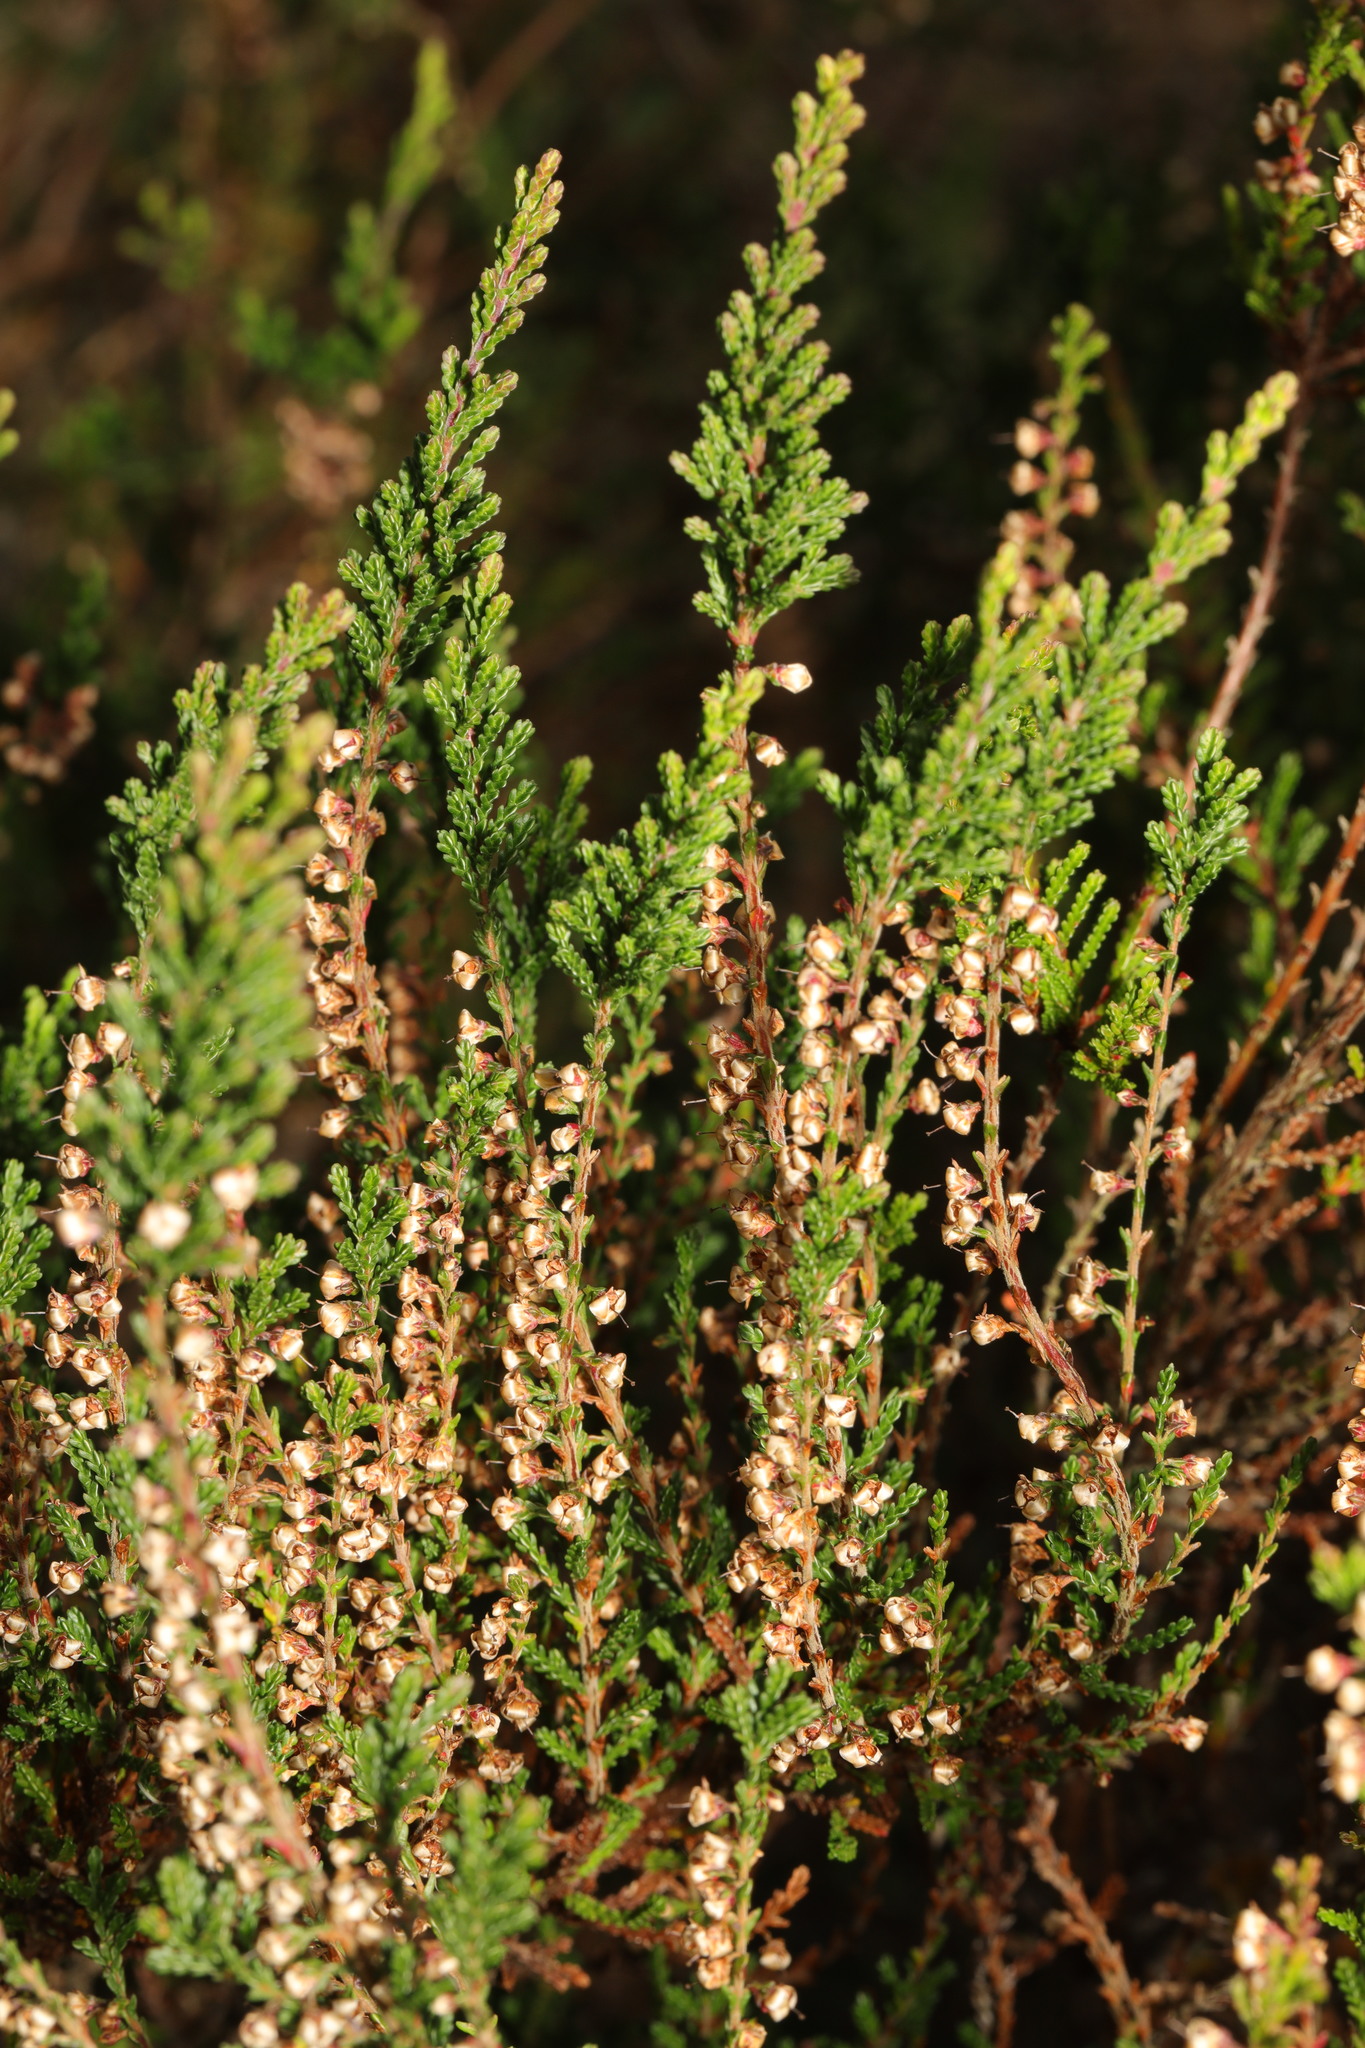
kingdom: Plantae
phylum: Tracheophyta
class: Magnoliopsida
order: Ericales
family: Ericaceae
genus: Calluna
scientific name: Calluna vulgaris
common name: Heather
